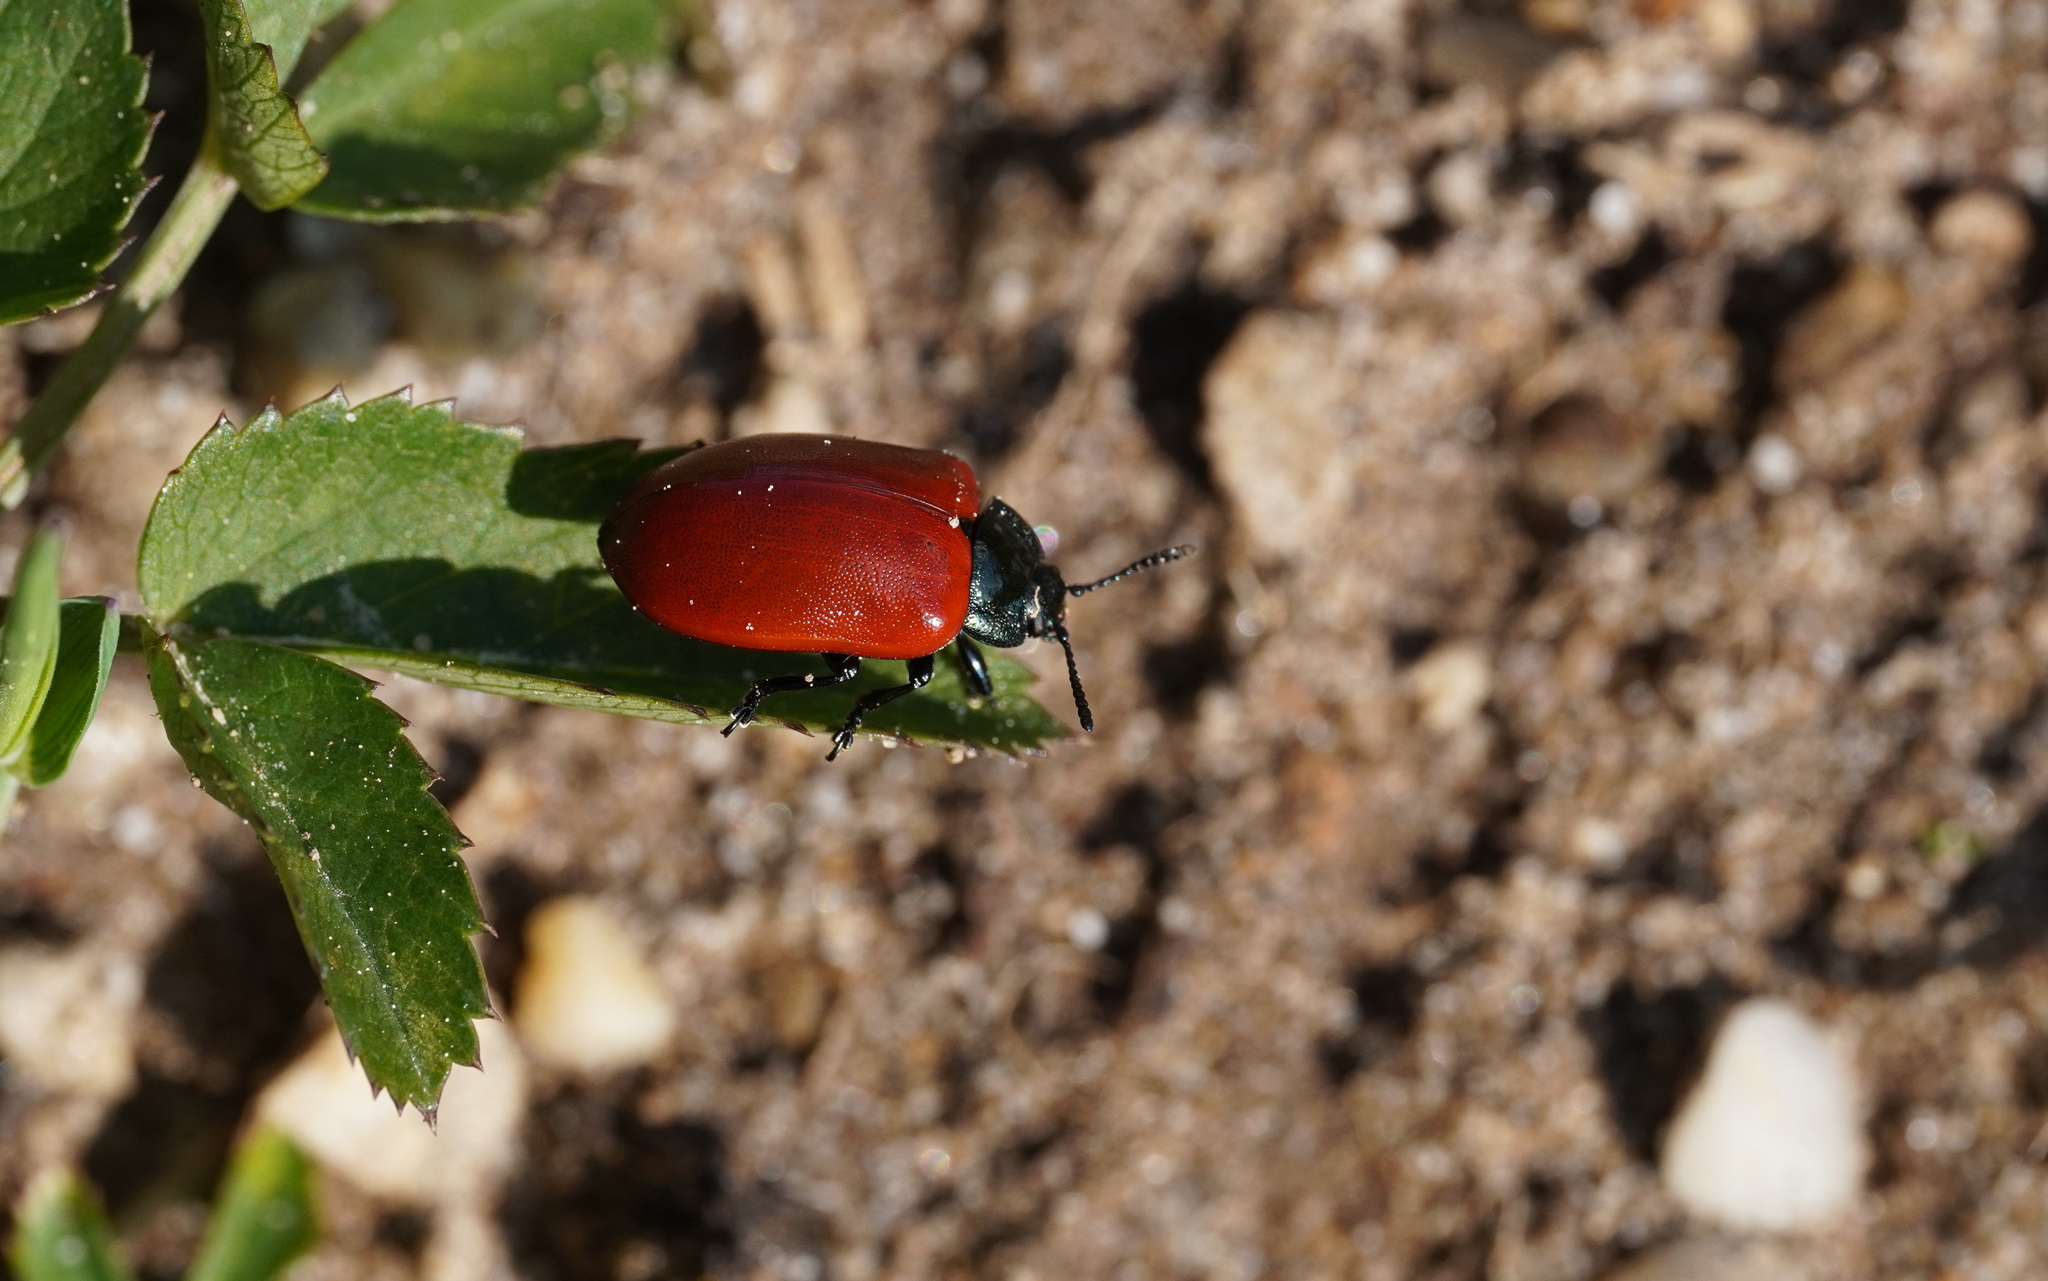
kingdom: Animalia
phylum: Arthropoda
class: Insecta
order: Coleoptera
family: Chrysomelidae
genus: Chrysomela
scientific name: Chrysomela populi
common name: Red poplar leaf beetle
